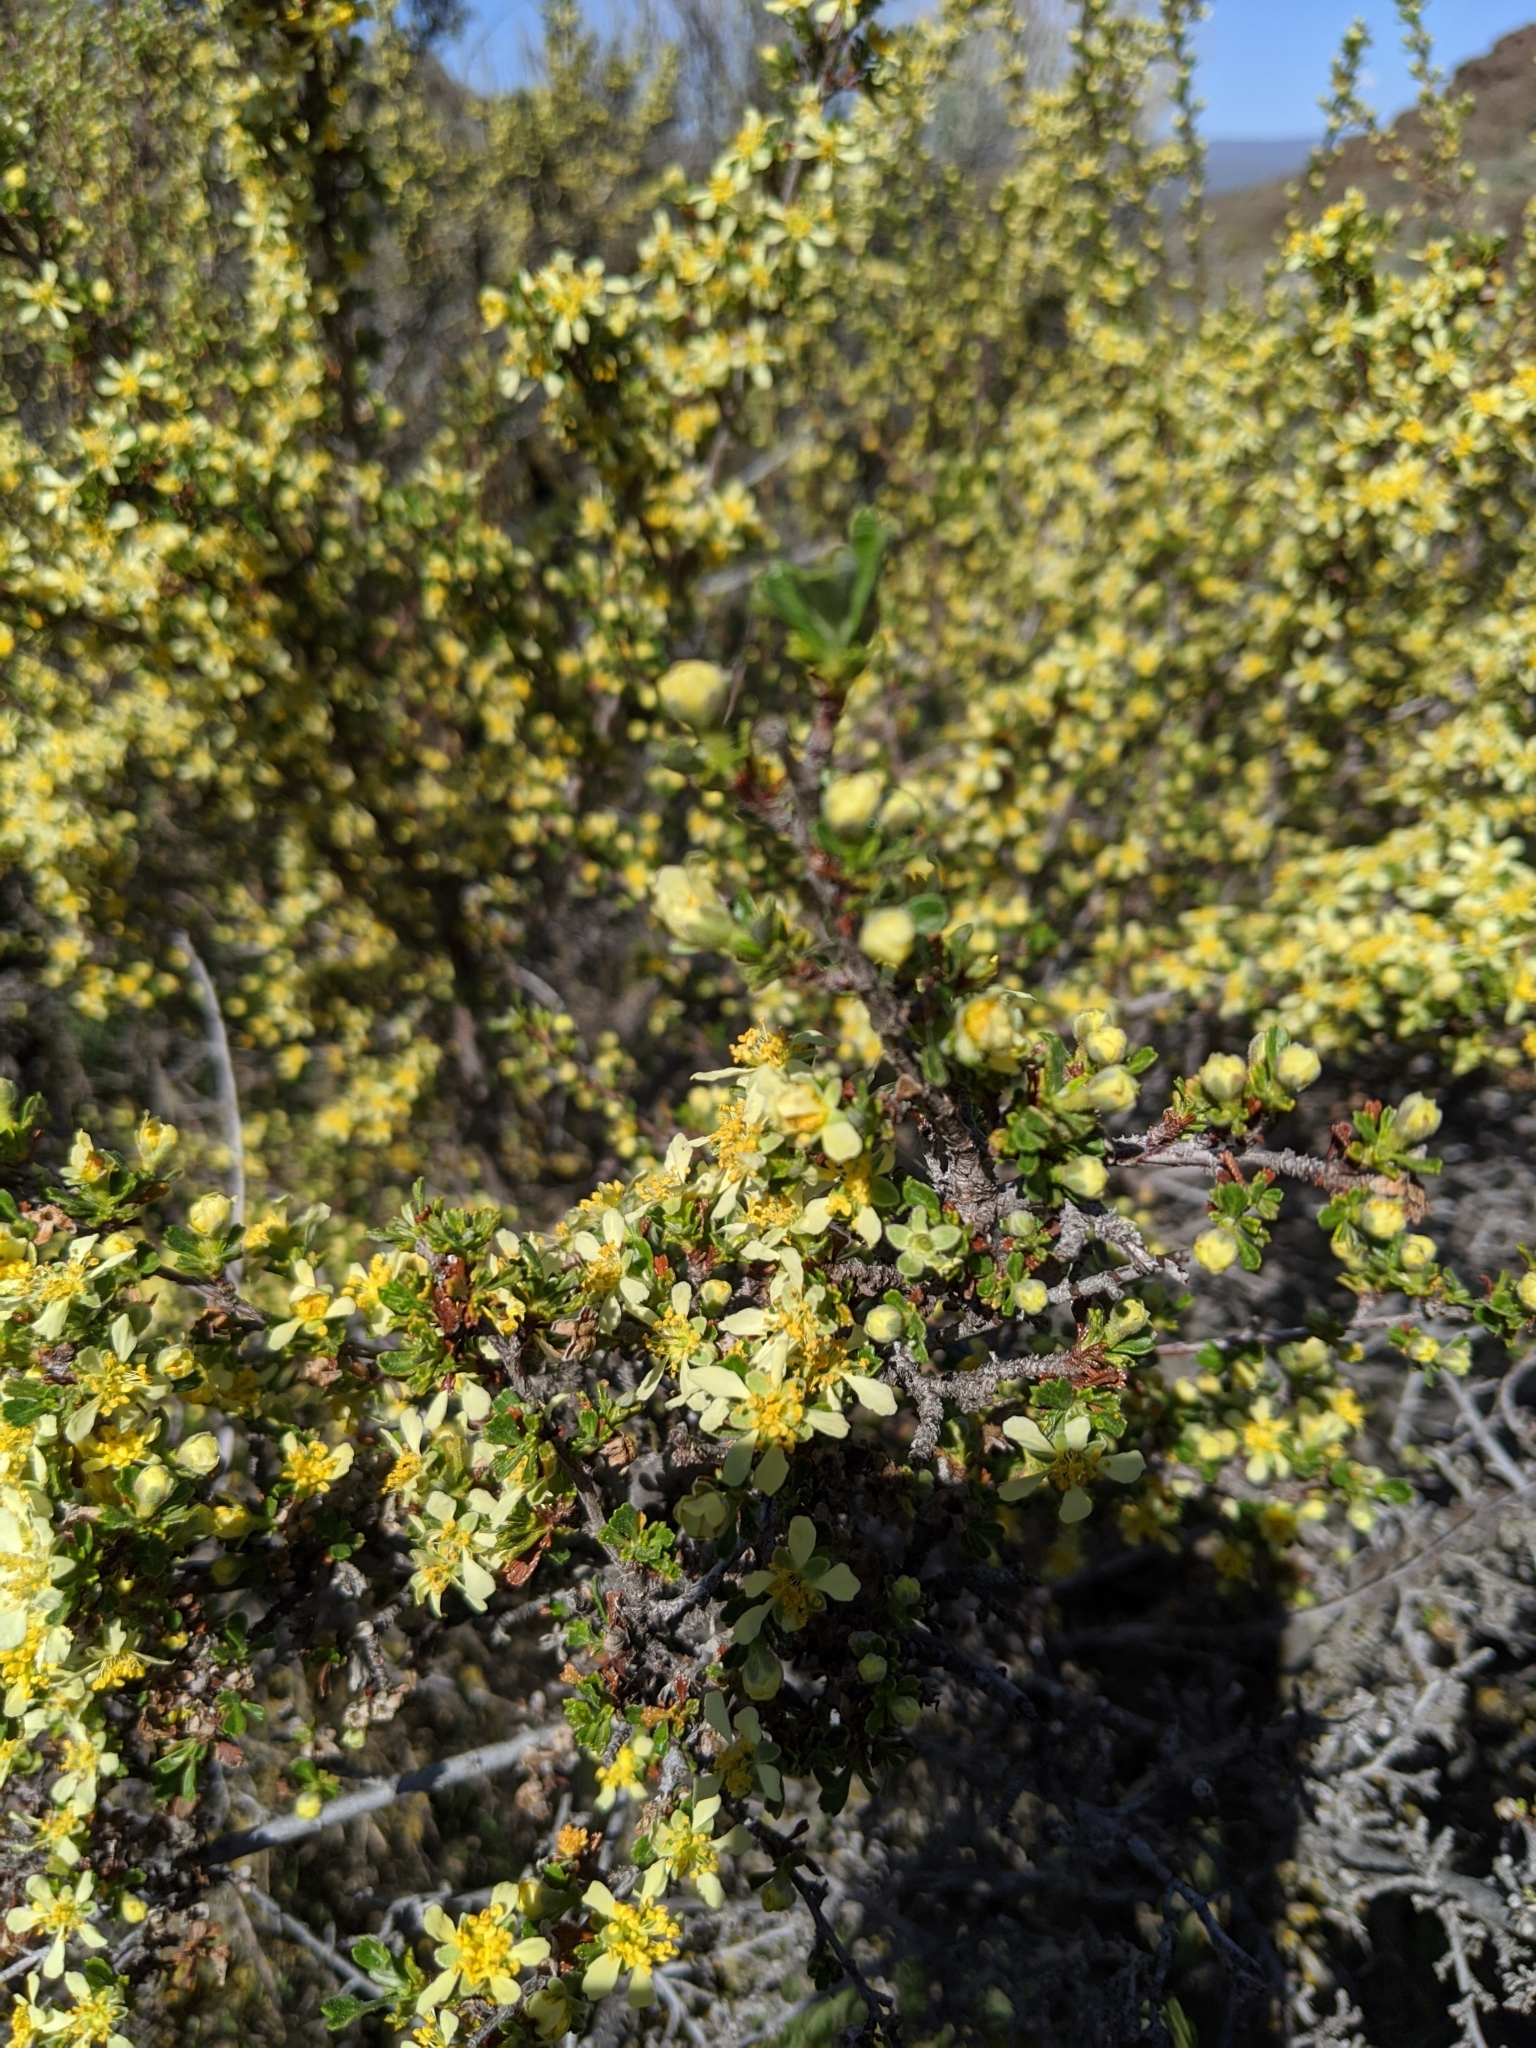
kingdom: Plantae
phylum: Tracheophyta
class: Magnoliopsida
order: Rosales
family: Rosaceae
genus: Purshia
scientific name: Purshia tridentata
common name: Antelope bitterbrush
